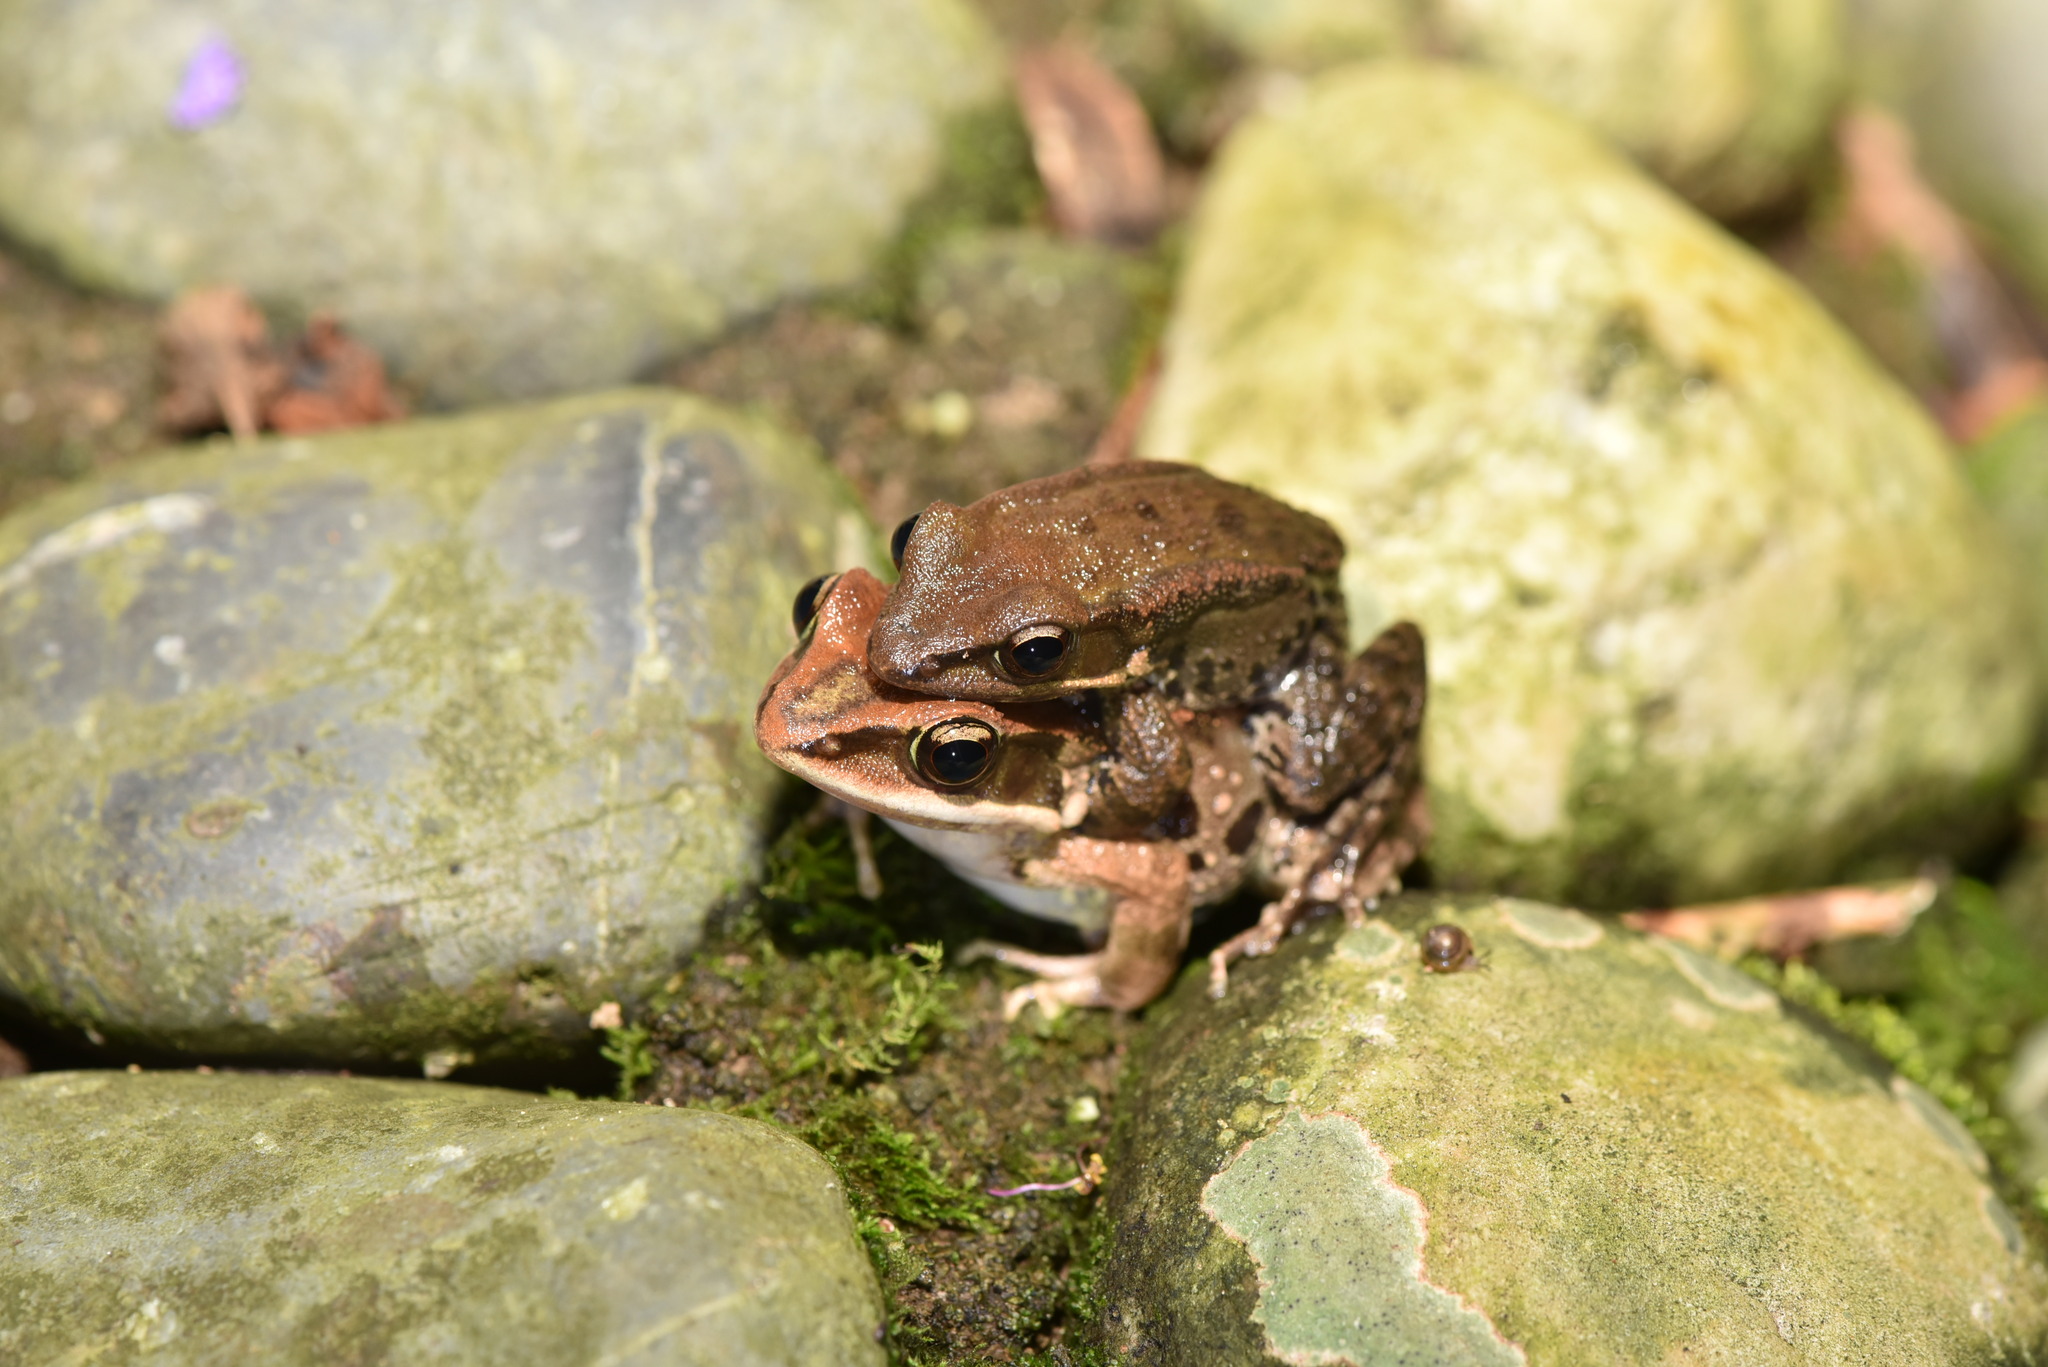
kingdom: Animalia
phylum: Chordata
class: Amphibia
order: Anura
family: Ranidae
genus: Hylarana
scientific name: Hylarana latouchii
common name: Broad-folded frog
